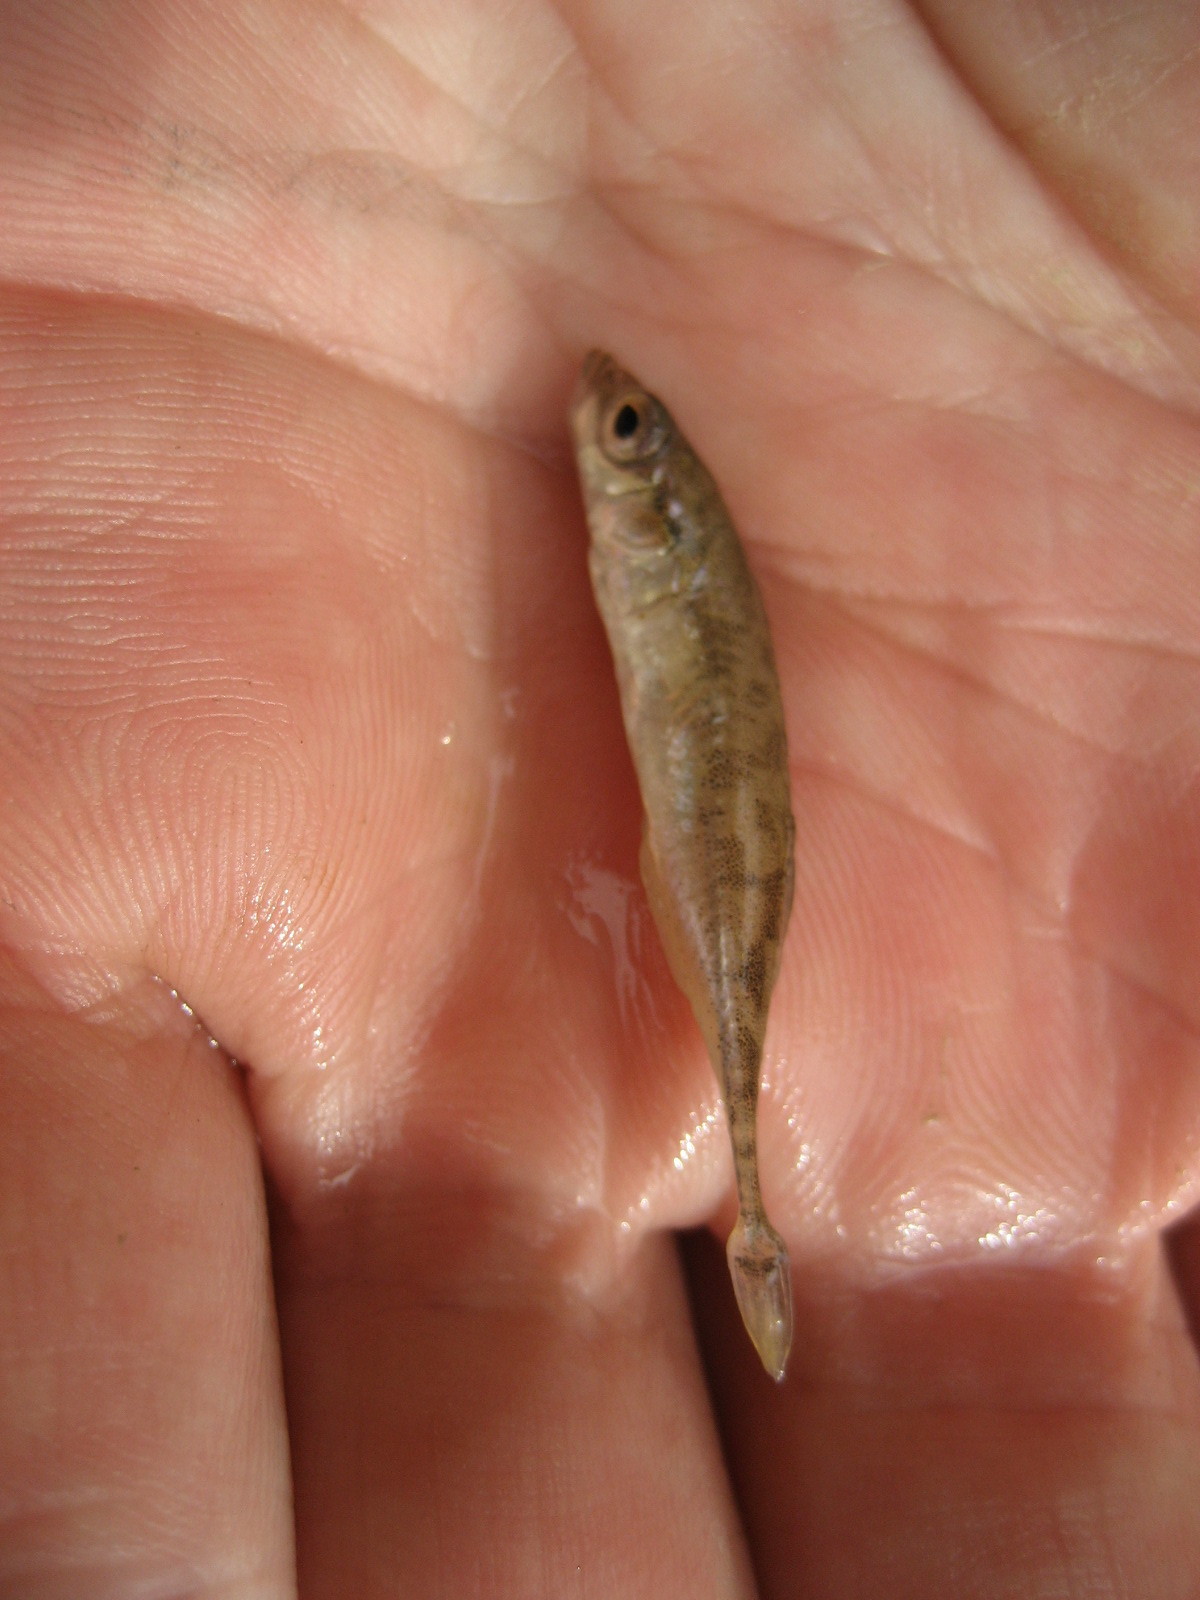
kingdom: Animalia
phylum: Chordata
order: Gasterosteiformes
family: Gasterosteidae
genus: Pungitius
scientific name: Pungitius pungitius
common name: Nine-spined stickleback
